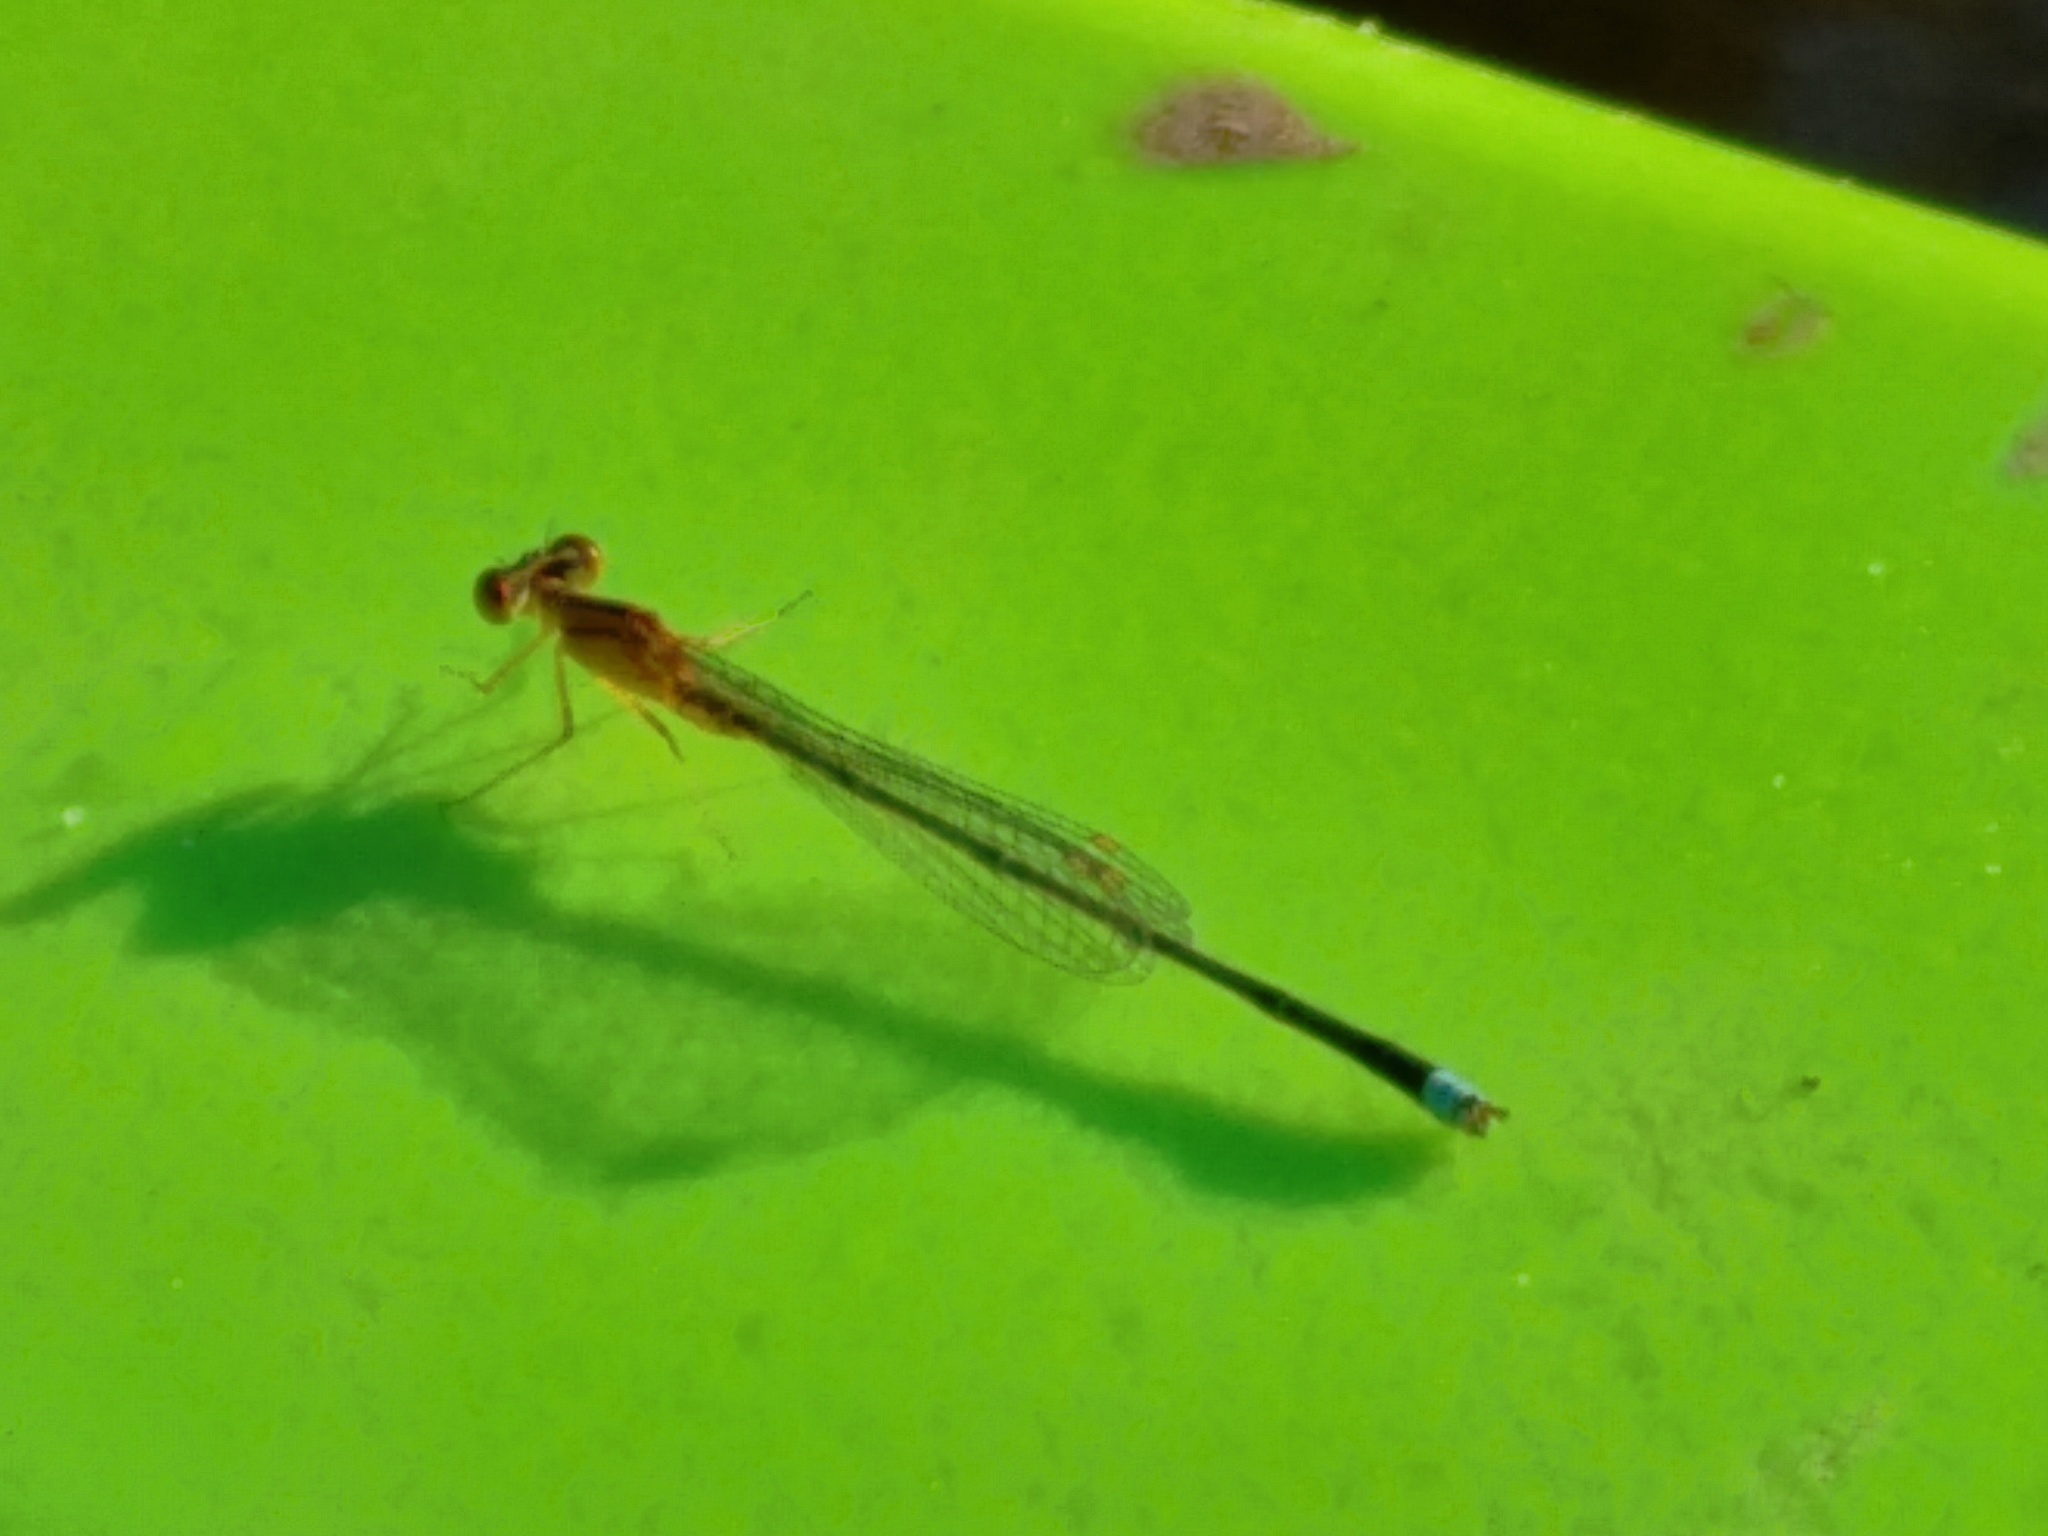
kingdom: Animalia
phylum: Arthropoda
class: Insecta
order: Odonata
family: Coenagrionidae
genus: Enallagma
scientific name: Enallagma vesperum
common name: Vesper bluet
